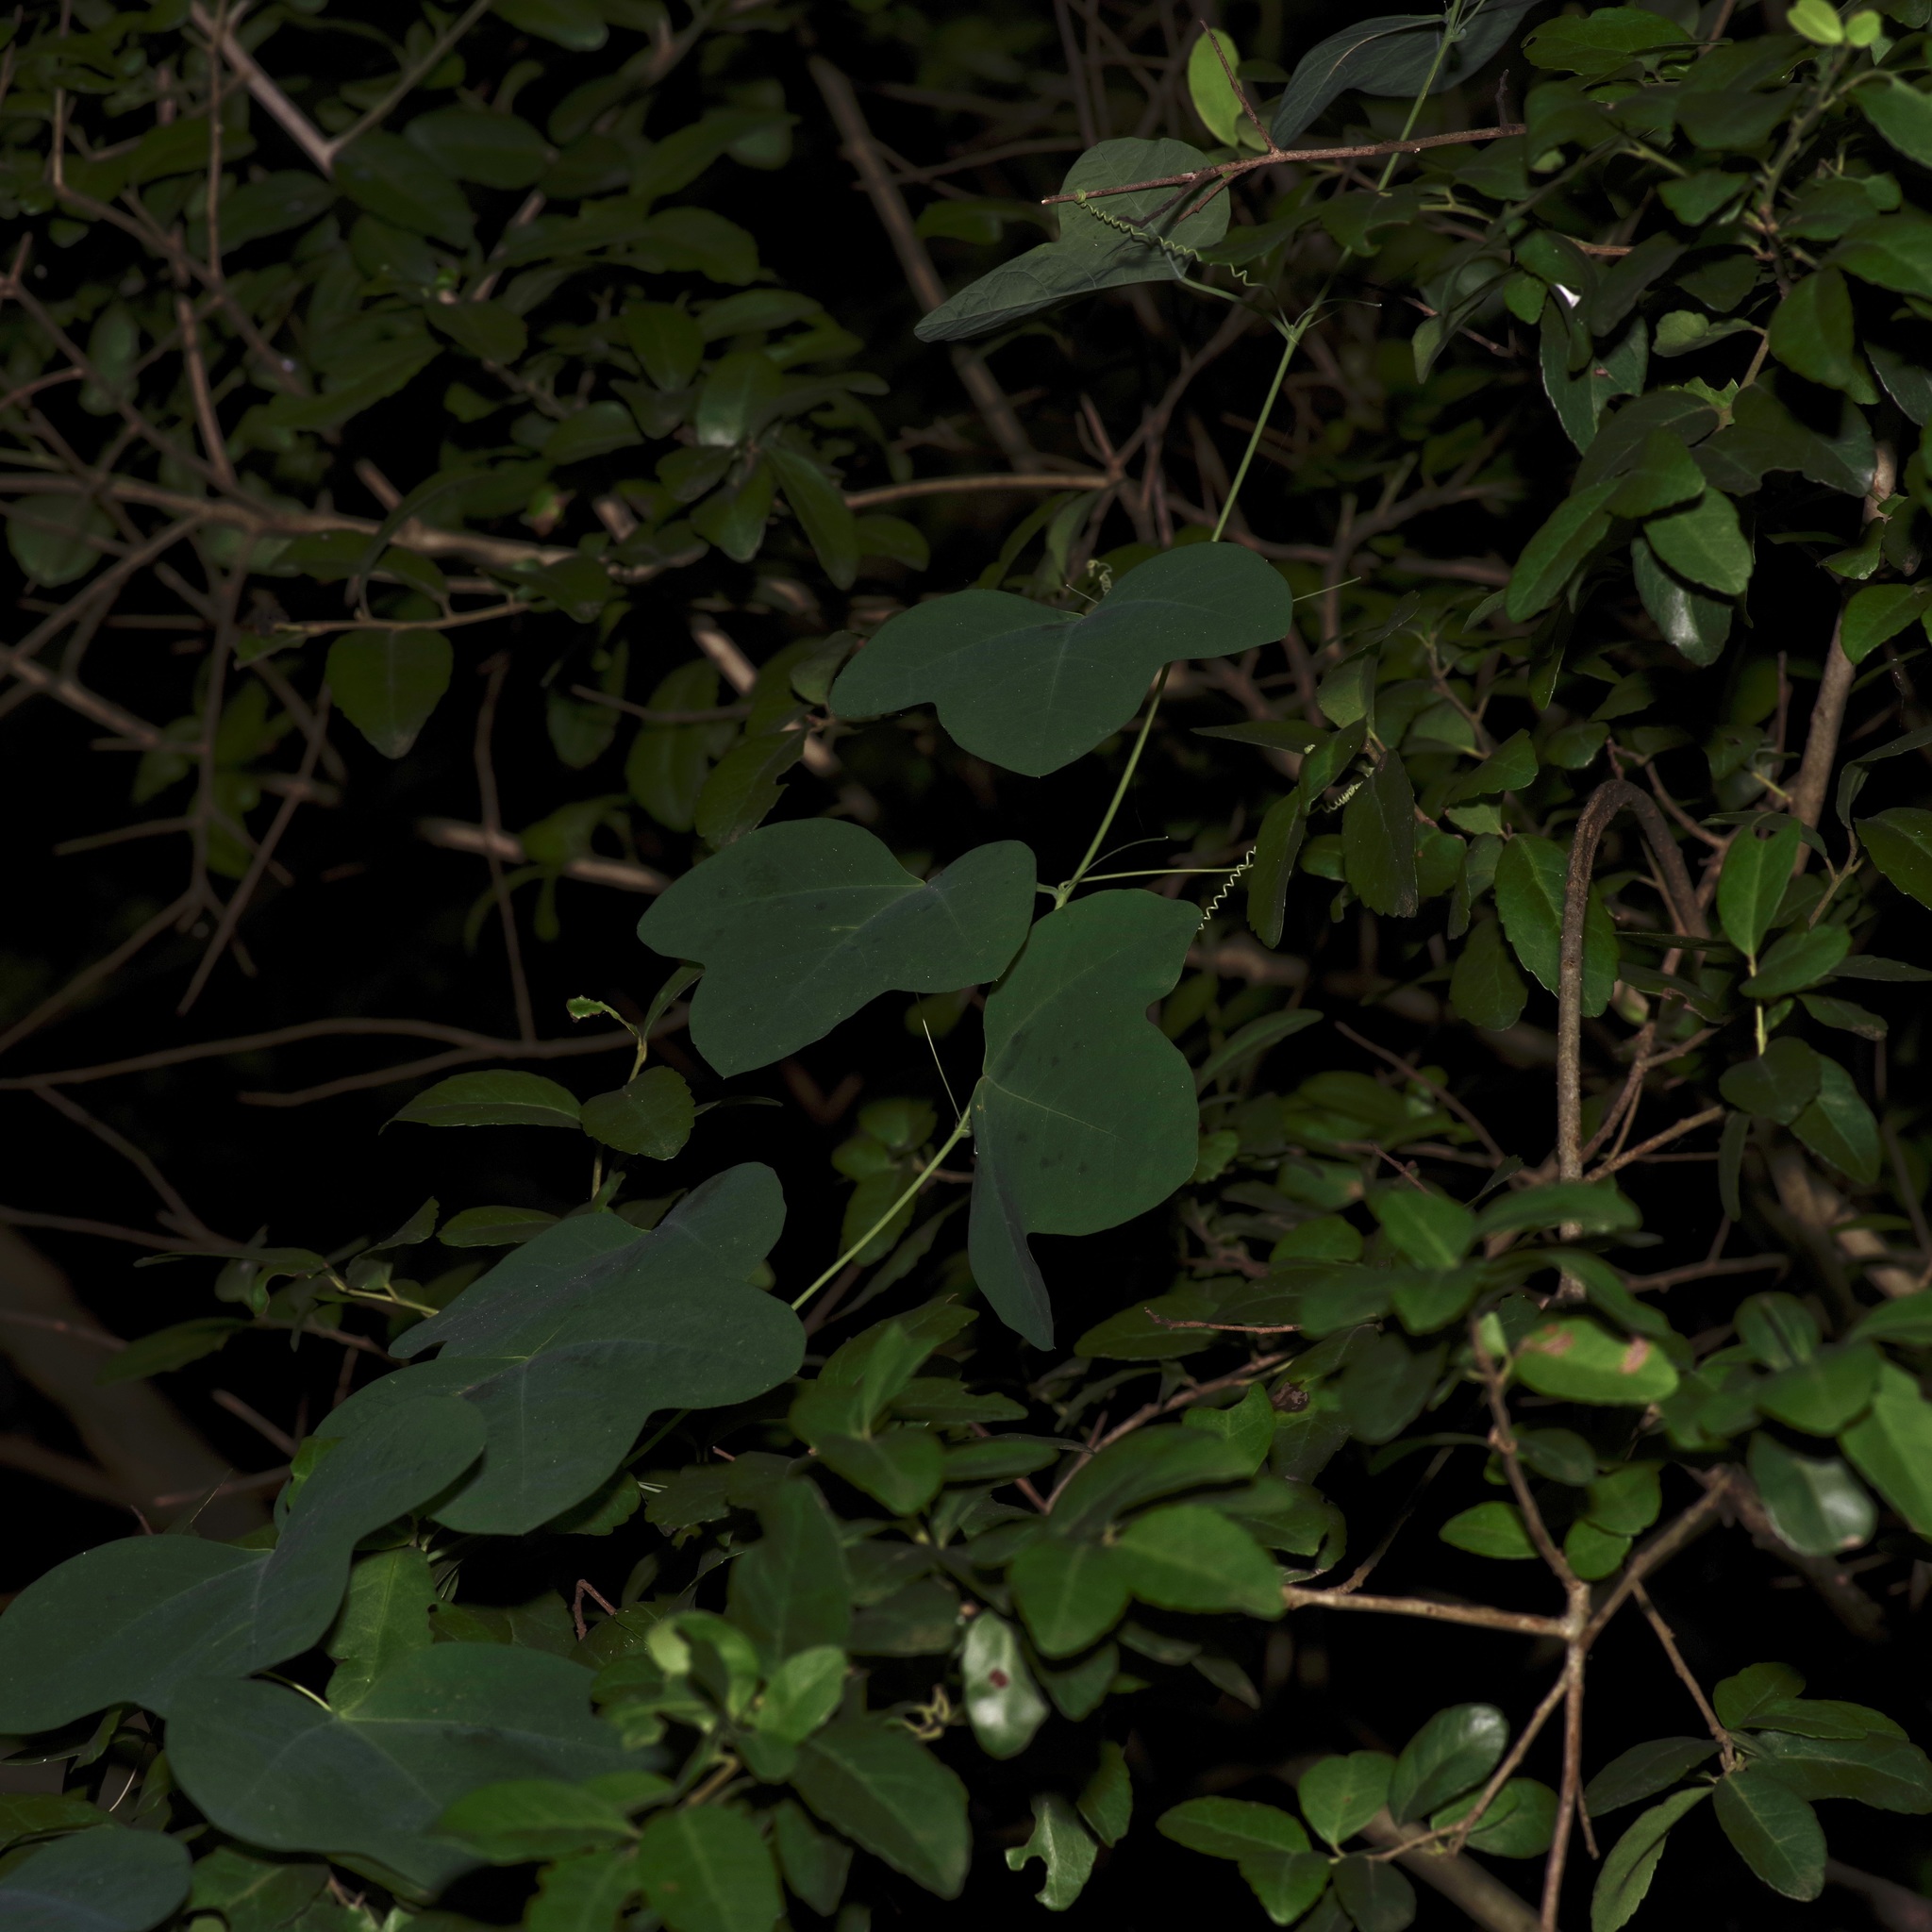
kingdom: Plantae
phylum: Tracheophyta
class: Magnoliopsida
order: Malpighiales
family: Passifloraceae
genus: Passiflora
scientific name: Passiflora lutea
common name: Yellow passionflower
